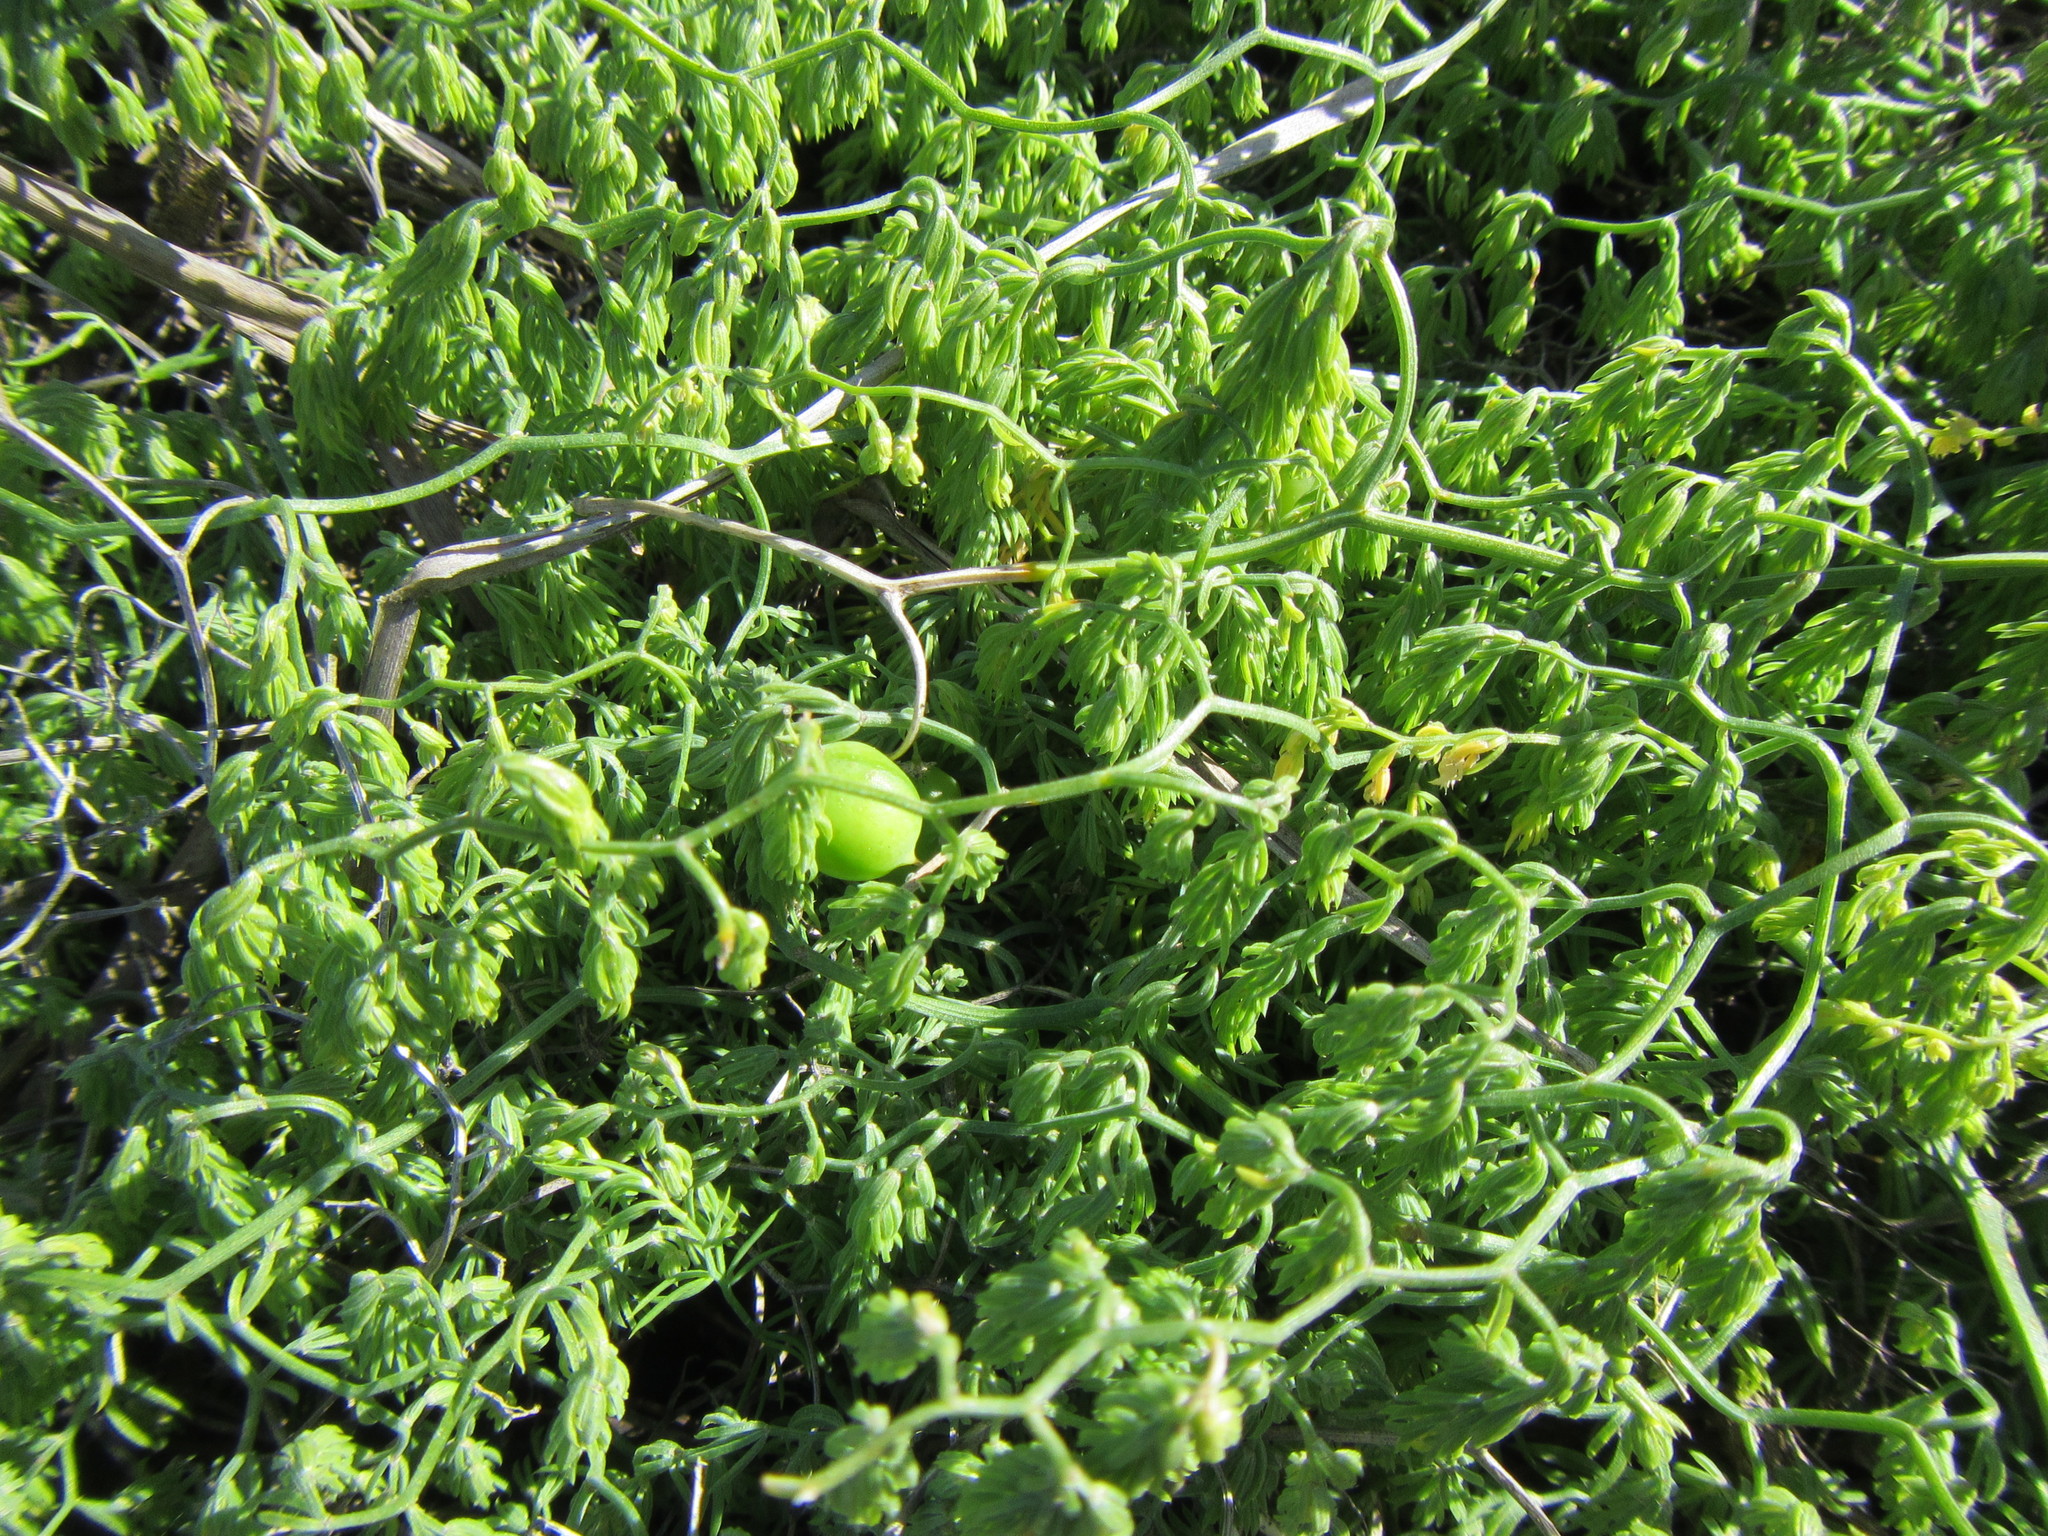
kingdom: Plantae
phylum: Tracheophyta
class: Liliopsida
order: Asparagales
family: Asparagaceae
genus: Asparagus
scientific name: Asparagus declinatus
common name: Bridal-creeper
